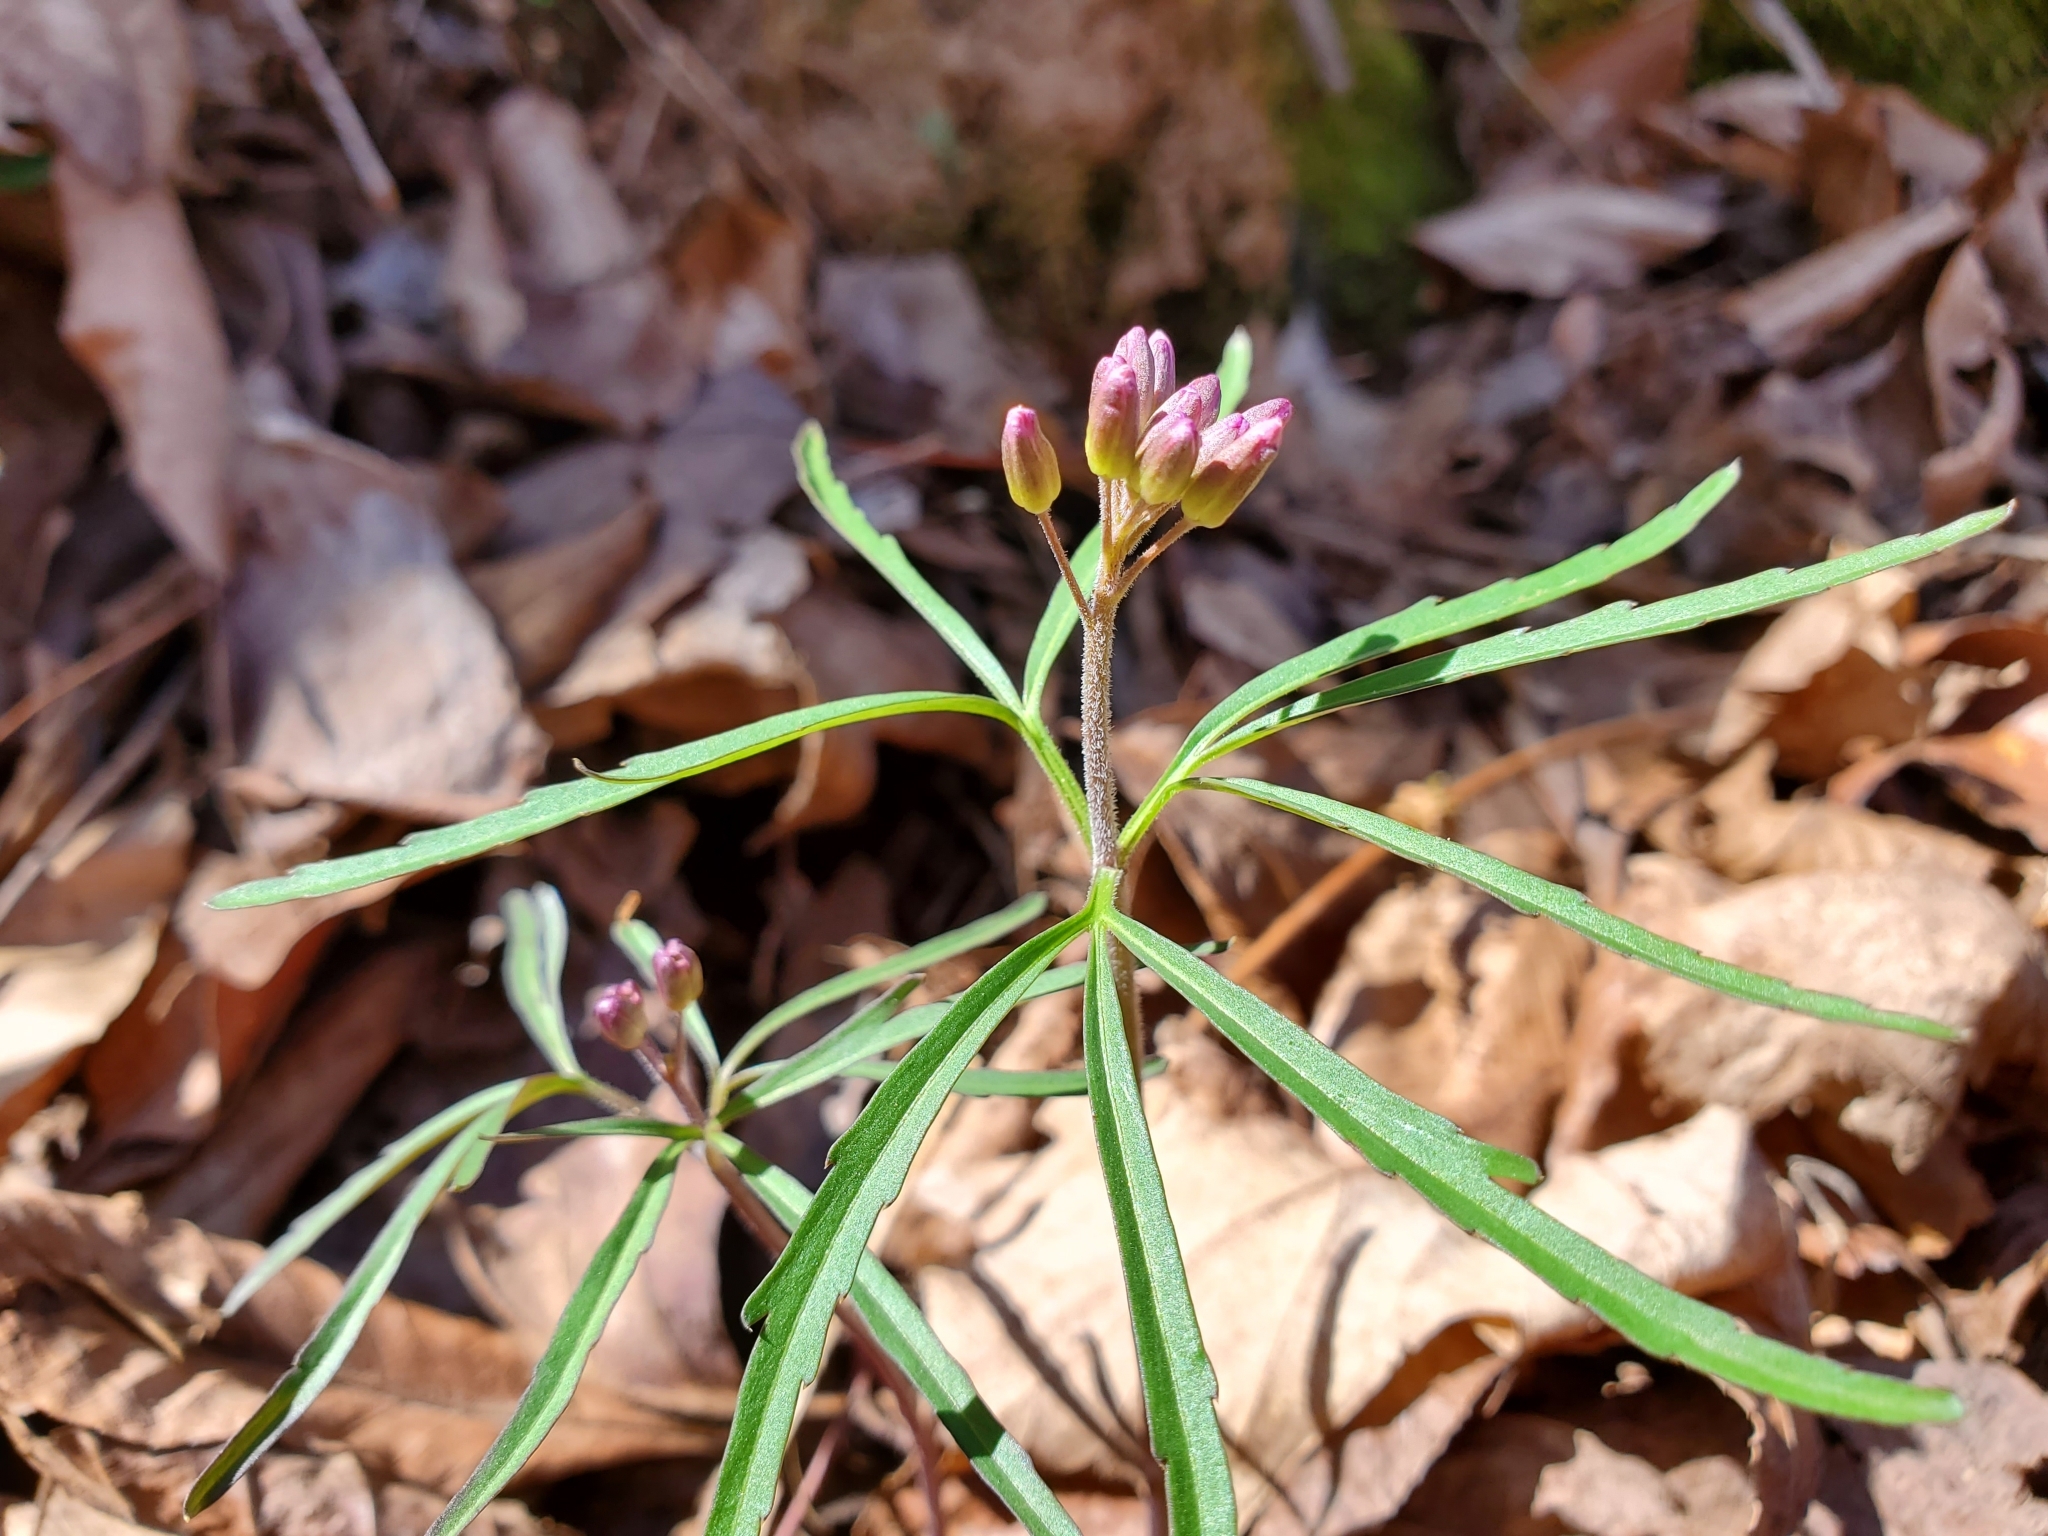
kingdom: Plantae
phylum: Tracheophyta
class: Magnoliopsida
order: Brassicales
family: Brassicaceae
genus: Cardamine
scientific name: Cardamine concatenata
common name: Cut-leaf toothcup
